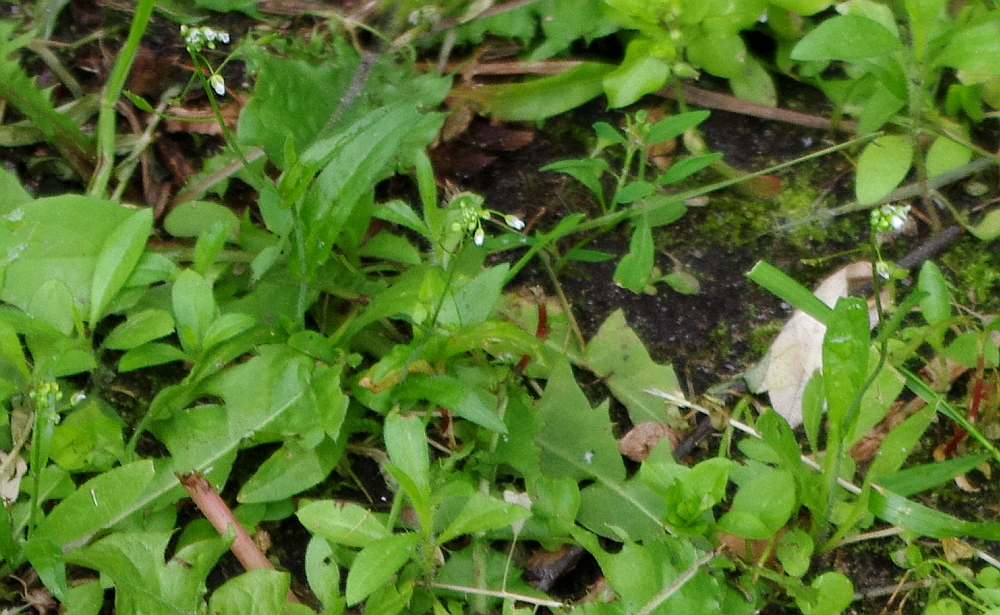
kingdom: Plantae
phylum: Tracheophyta
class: Magnoliopsida
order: Brassicales
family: Brassicaceae
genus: Capsella
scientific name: Capsella bursa-pastoris
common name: Shepherd's purse
